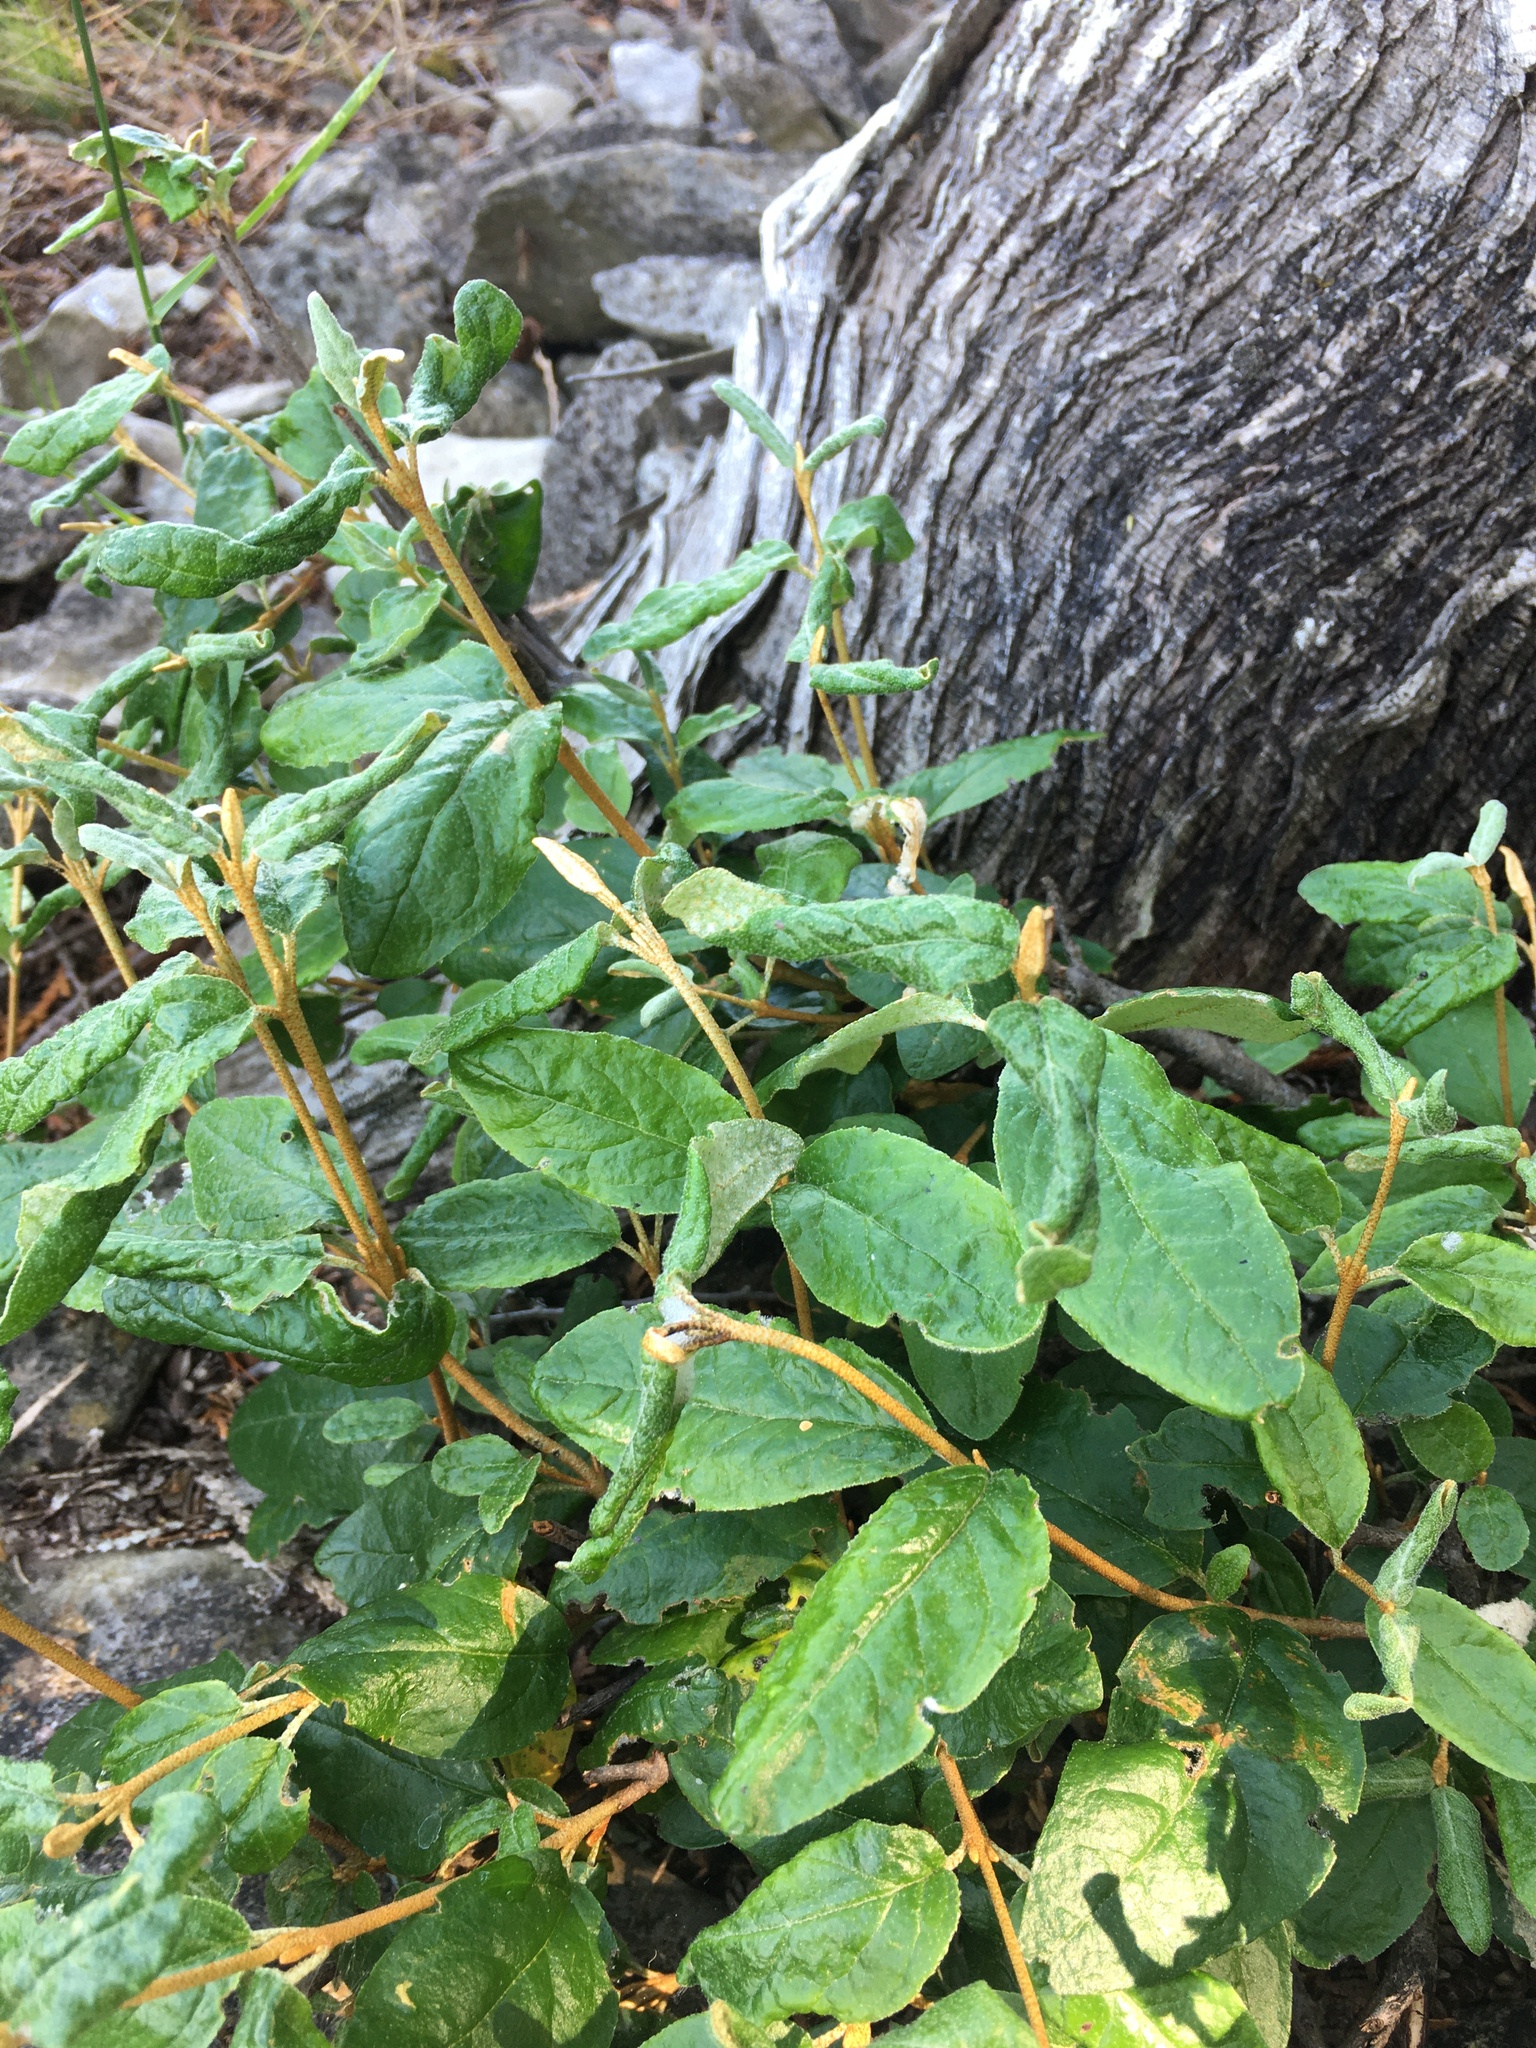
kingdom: Plantae
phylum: Tracheophyta
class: Magnoliopsida
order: Rosales
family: Elaeagnaceae
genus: Shepherdia
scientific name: Shepherdia canadensis
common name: Soapberry
